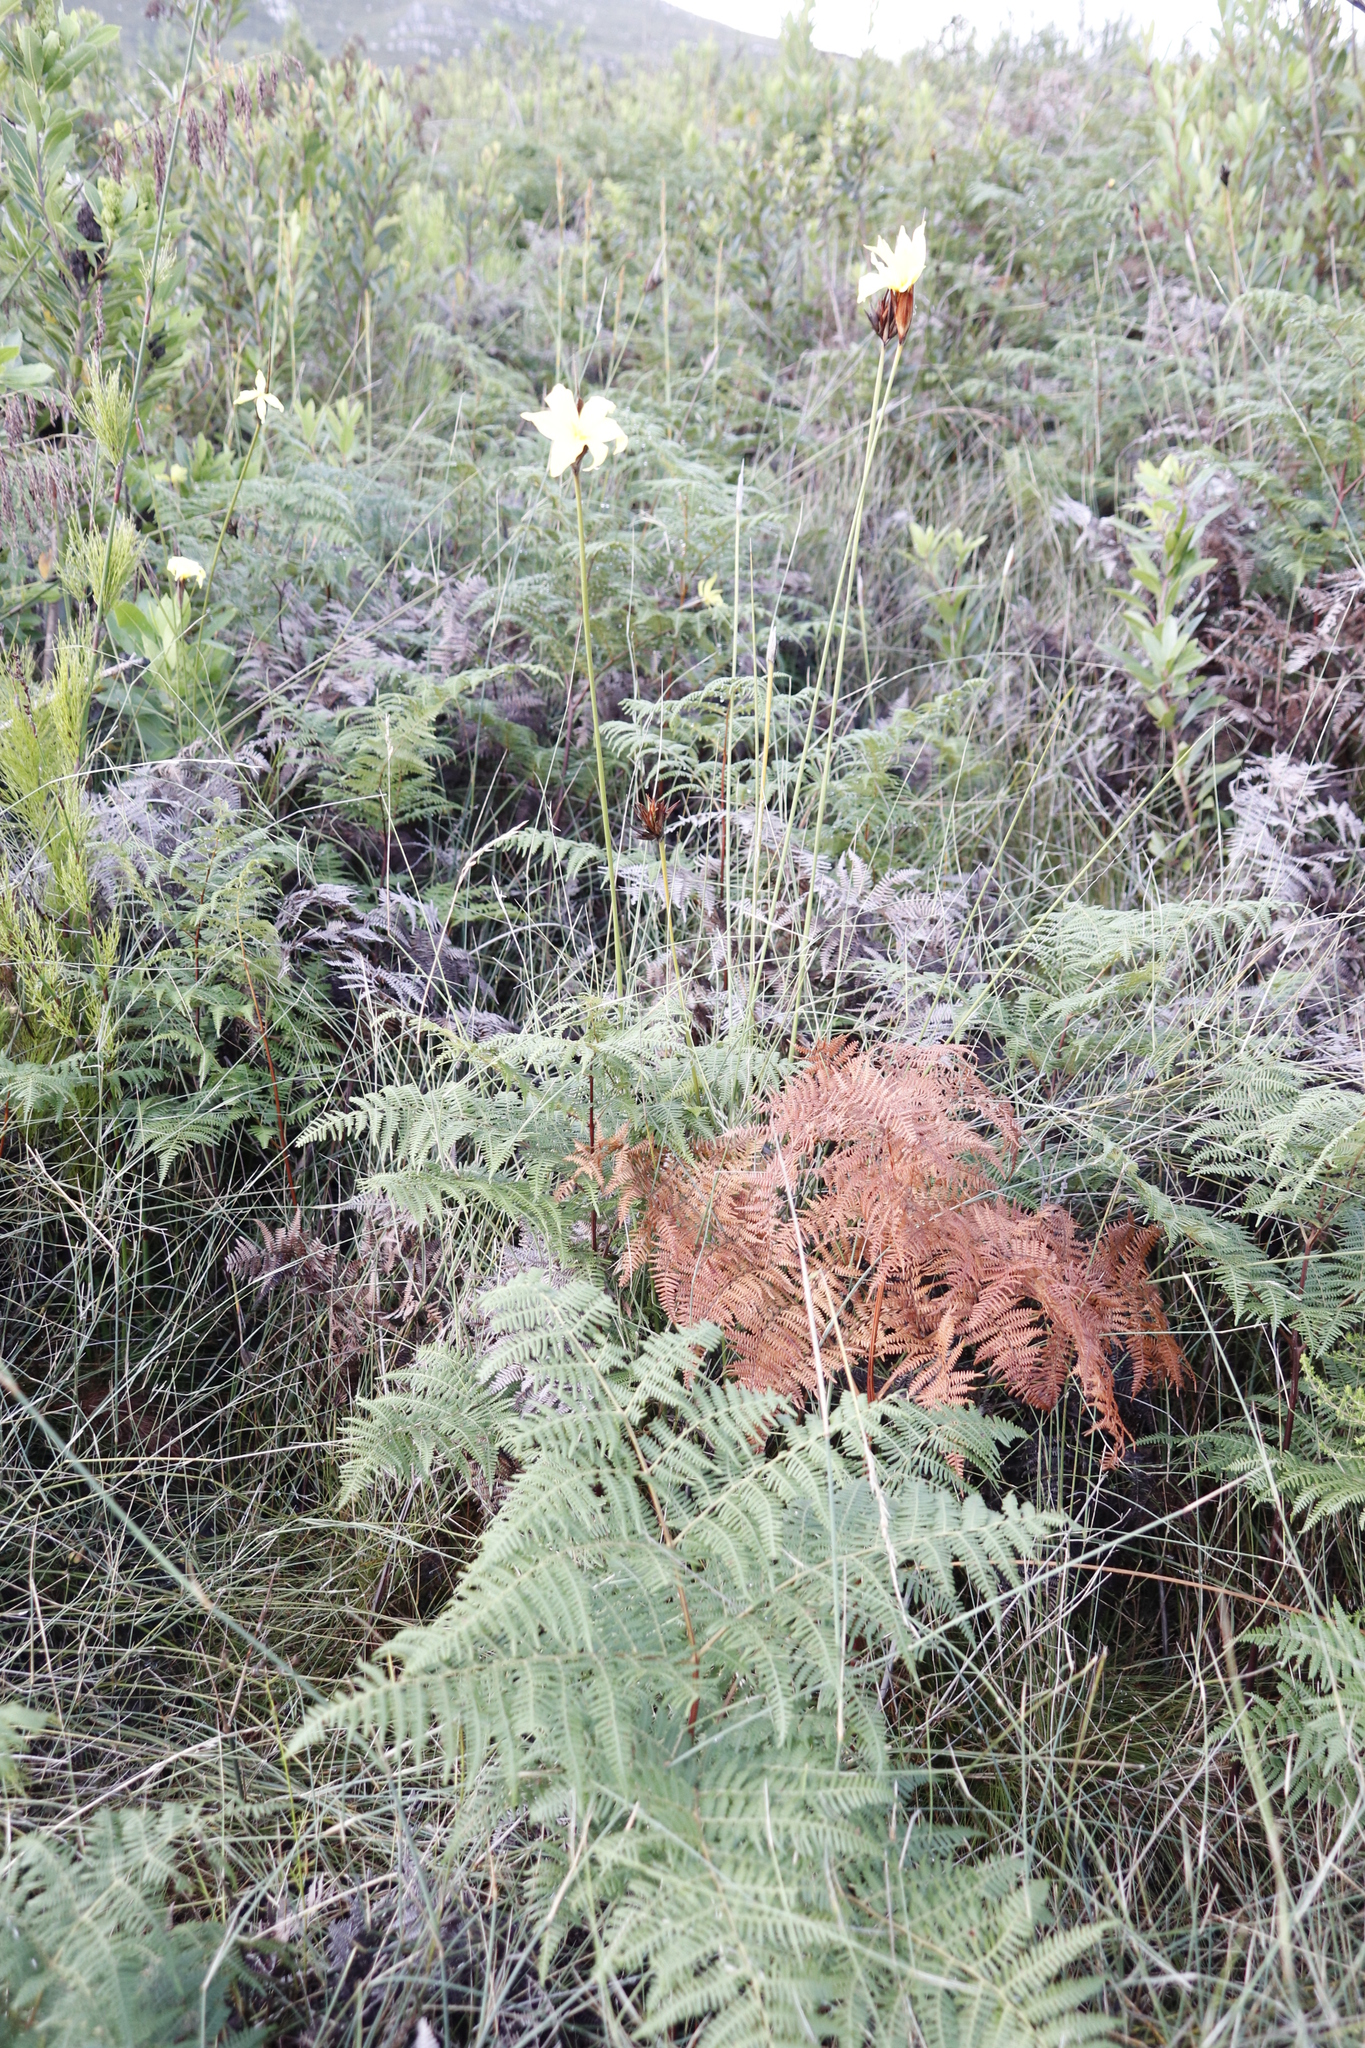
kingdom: Plantae
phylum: Tracheophyta
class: Polypodiopsida
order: Polypodiales
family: Dennstaedtiaceae
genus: Pteridium
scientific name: Pteridium aquilinum
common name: Bracken
